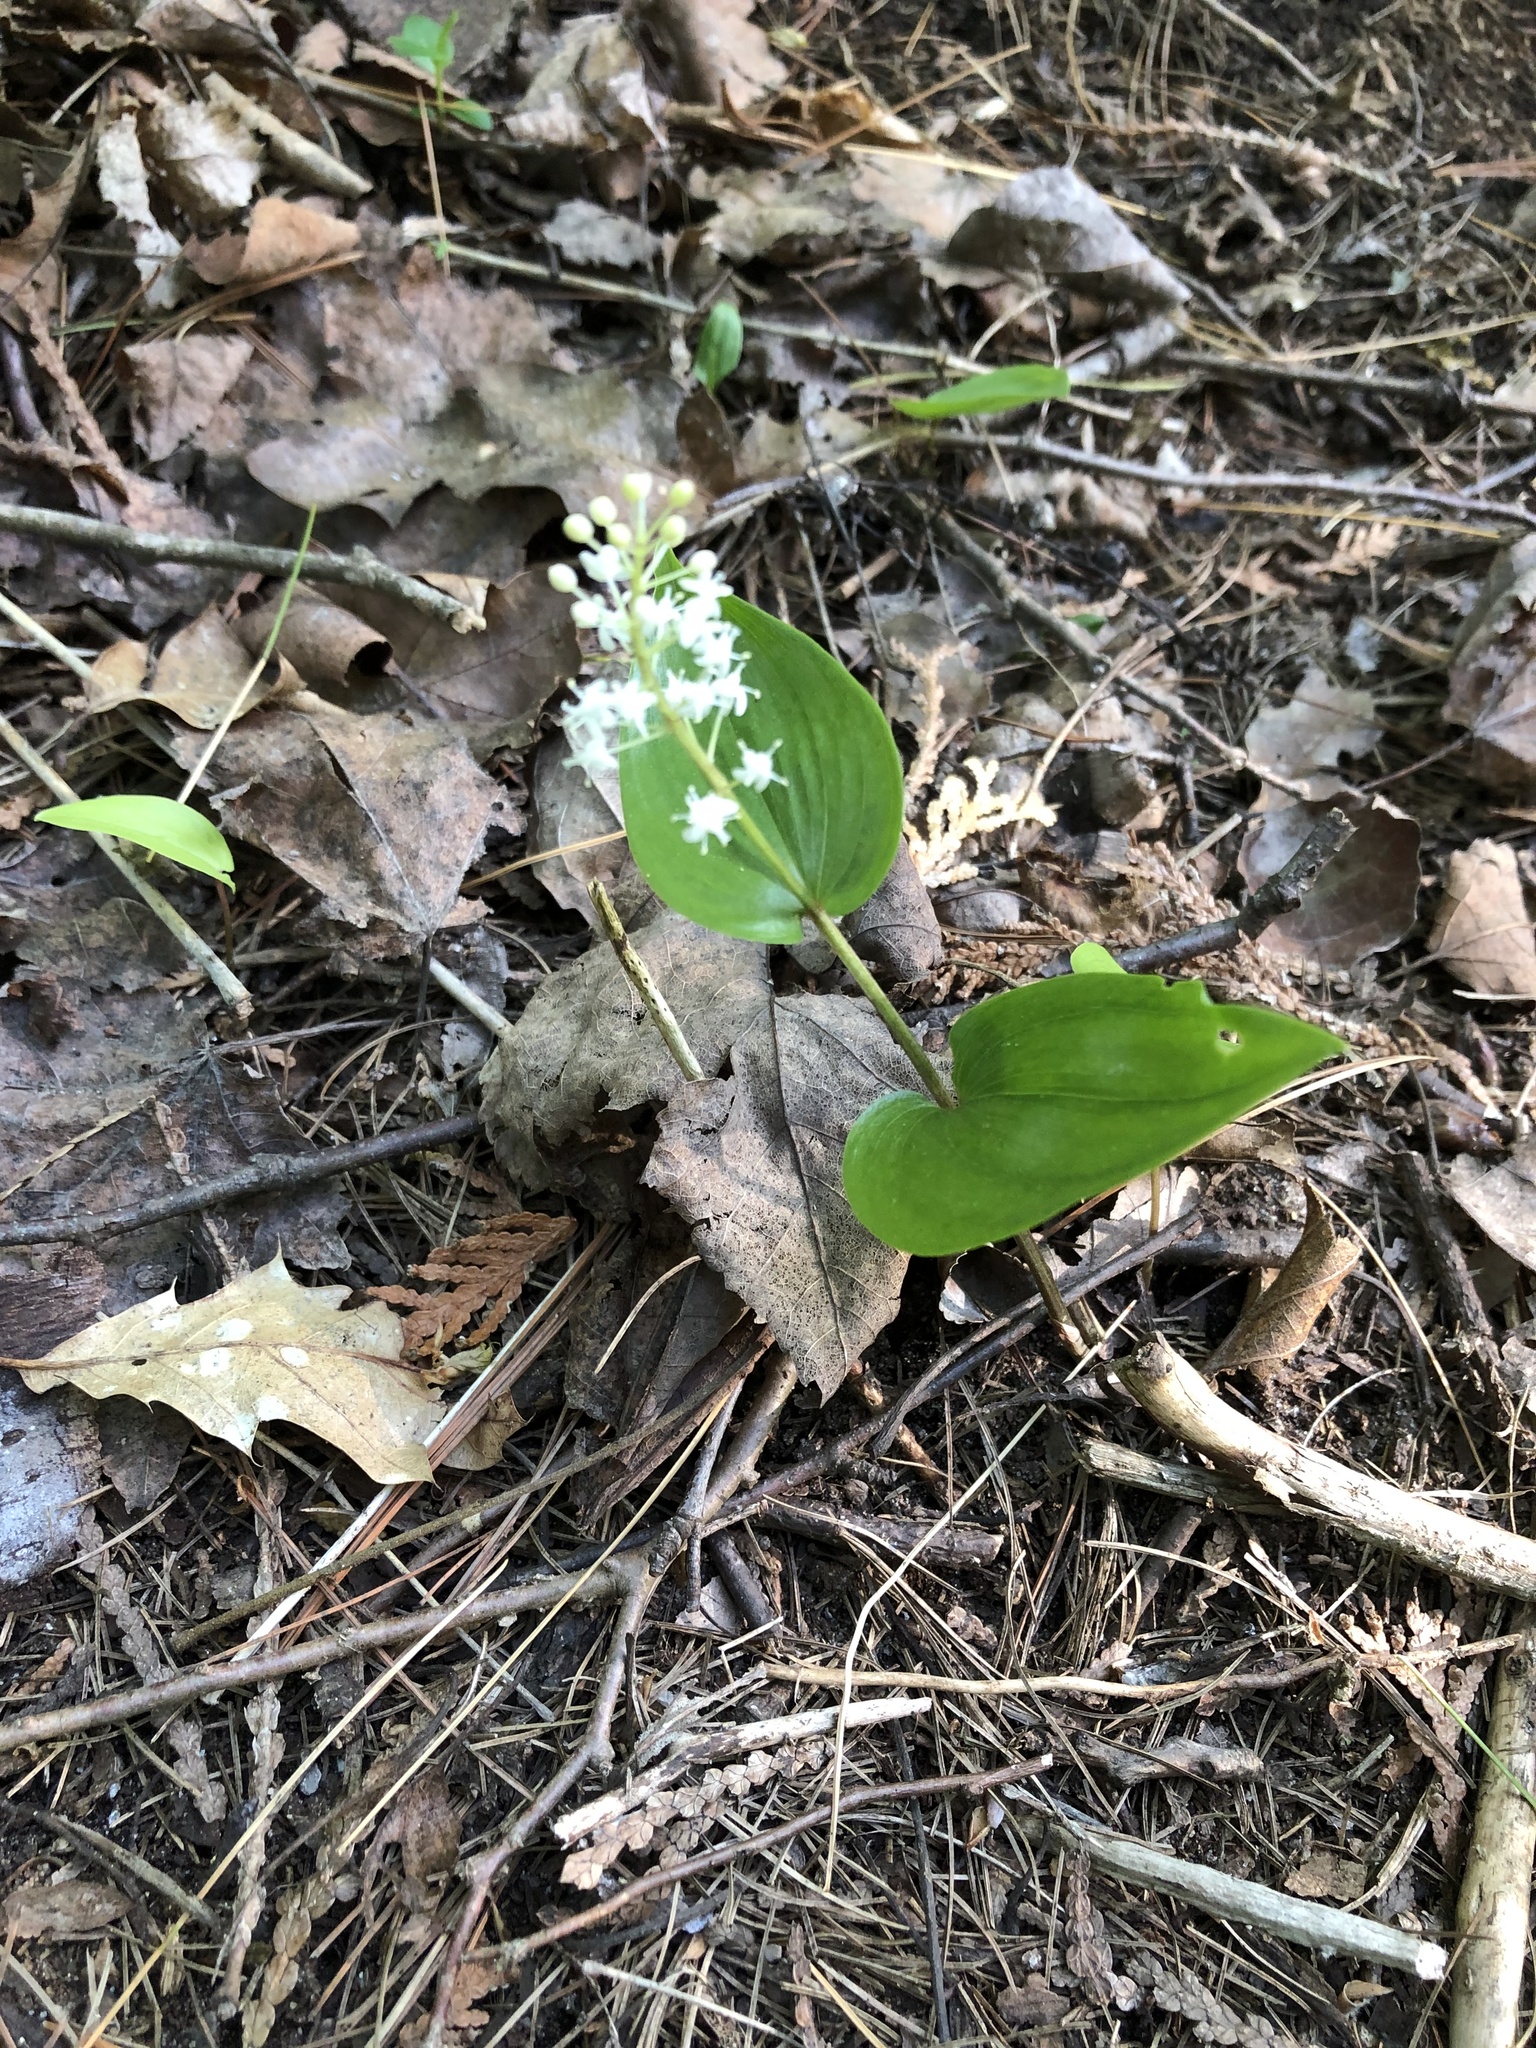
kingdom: Plantae
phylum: Tracheophyta
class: Liliopsida
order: Asparagales
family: Asparagaceae
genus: Maianthemum
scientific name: Maianthemum canadense
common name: False lily-of-the-valley
